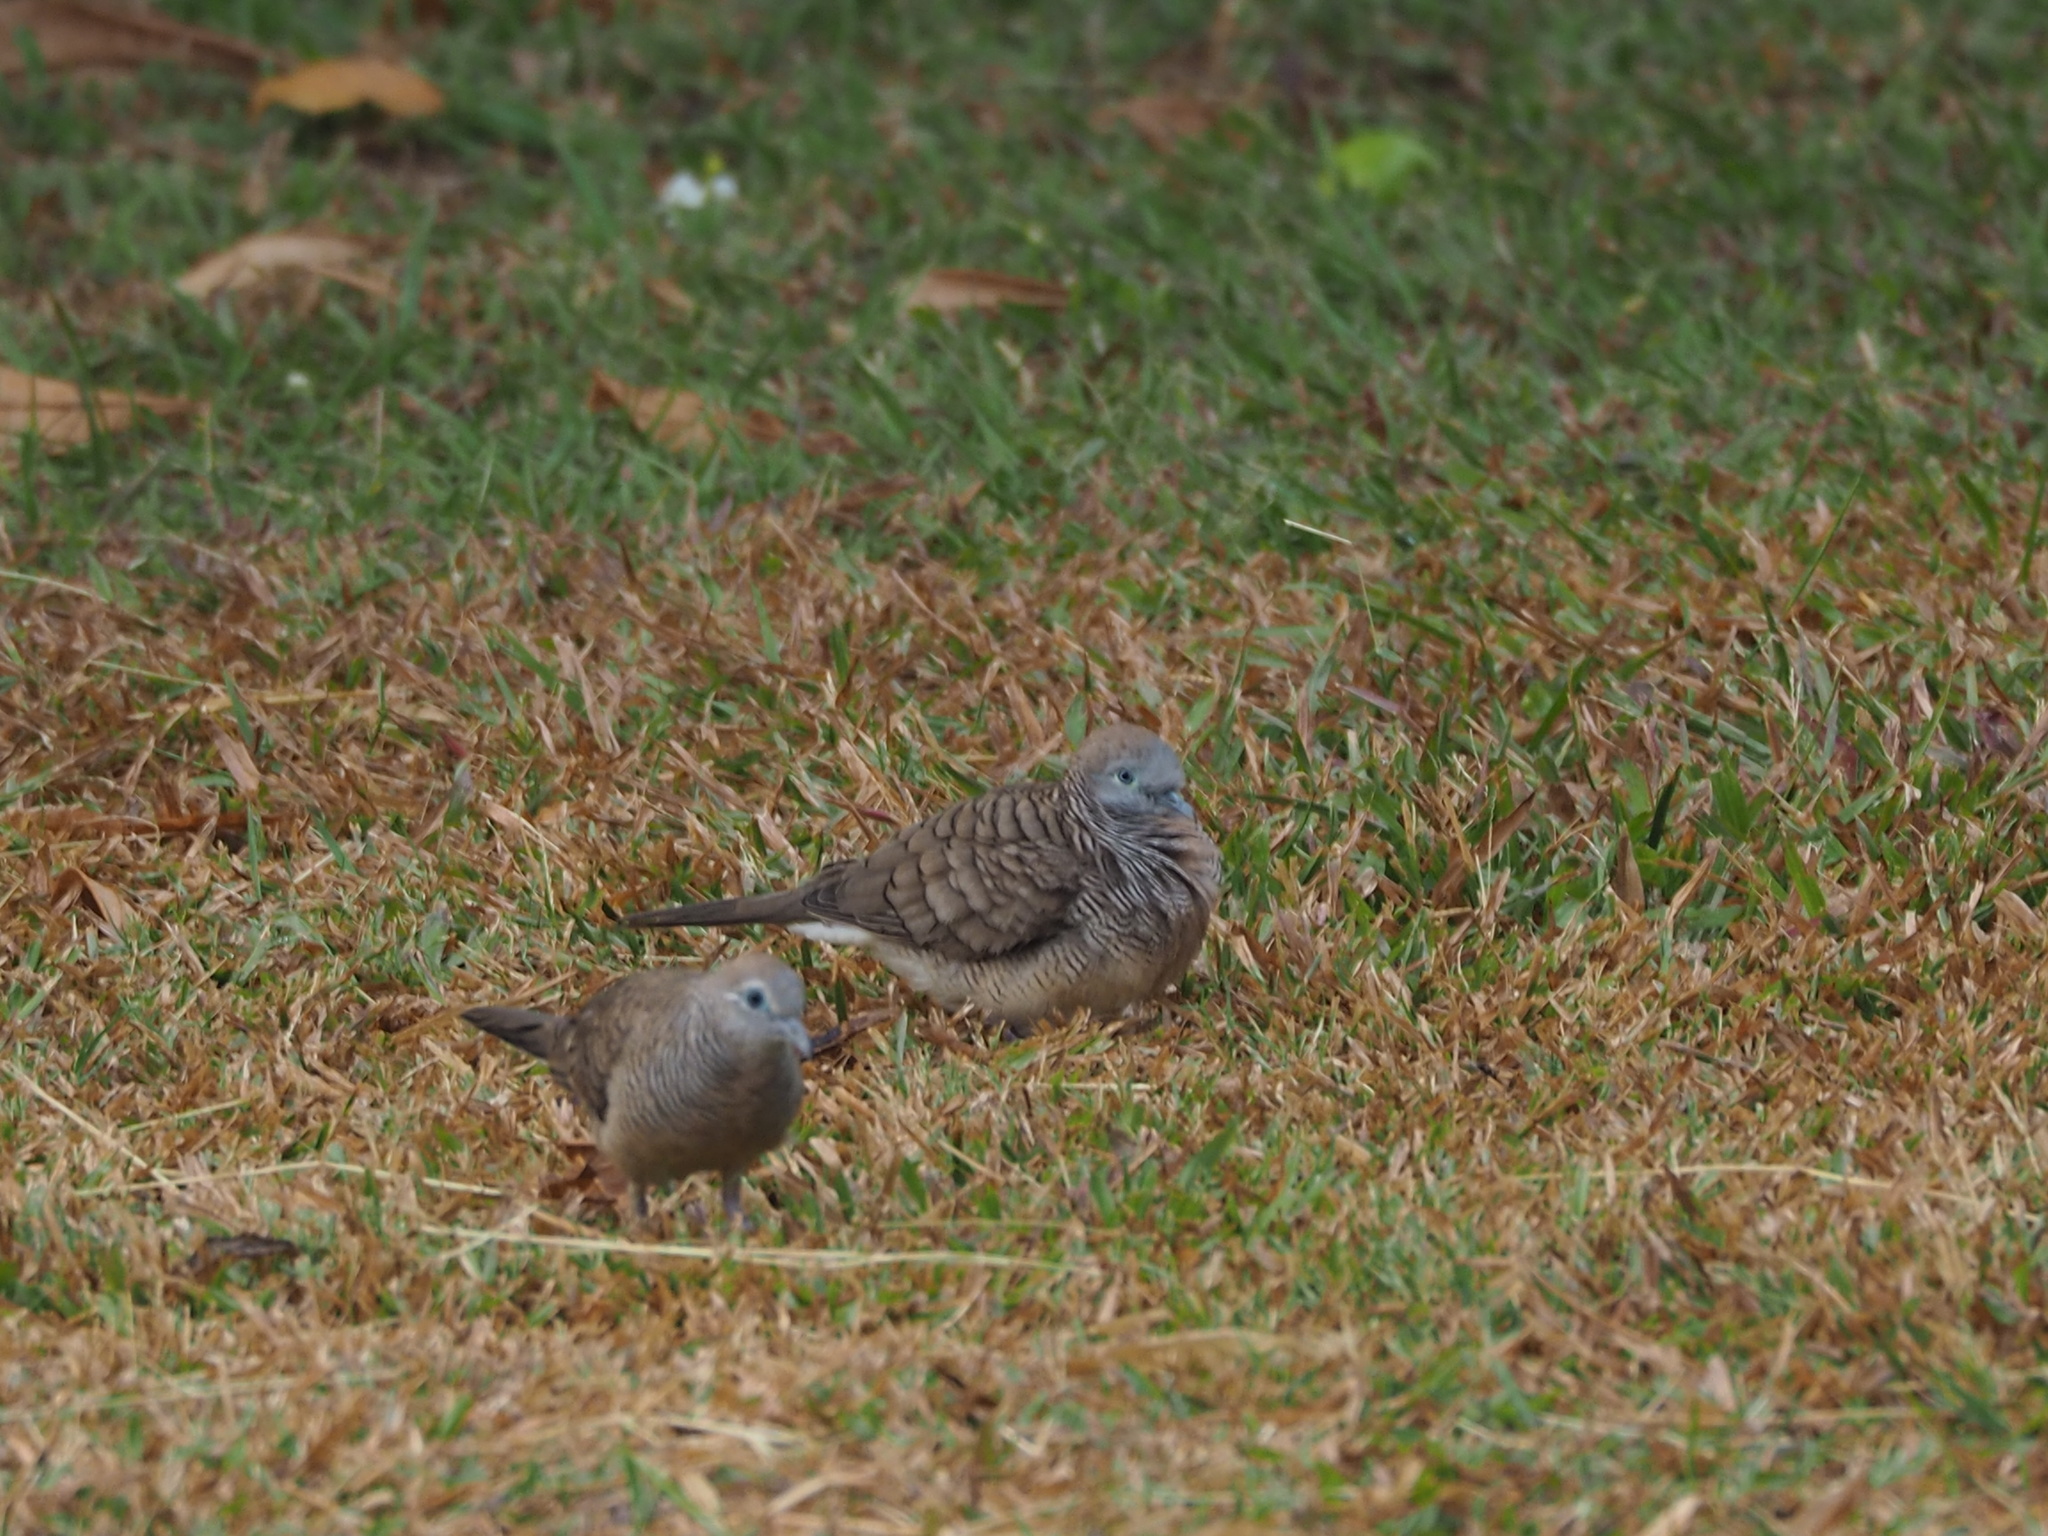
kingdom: Animalia
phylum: Chordata
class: Aves
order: Columbiformes
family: Columbidae
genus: Geopelia
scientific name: Geopelia striata
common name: Zebra dove
